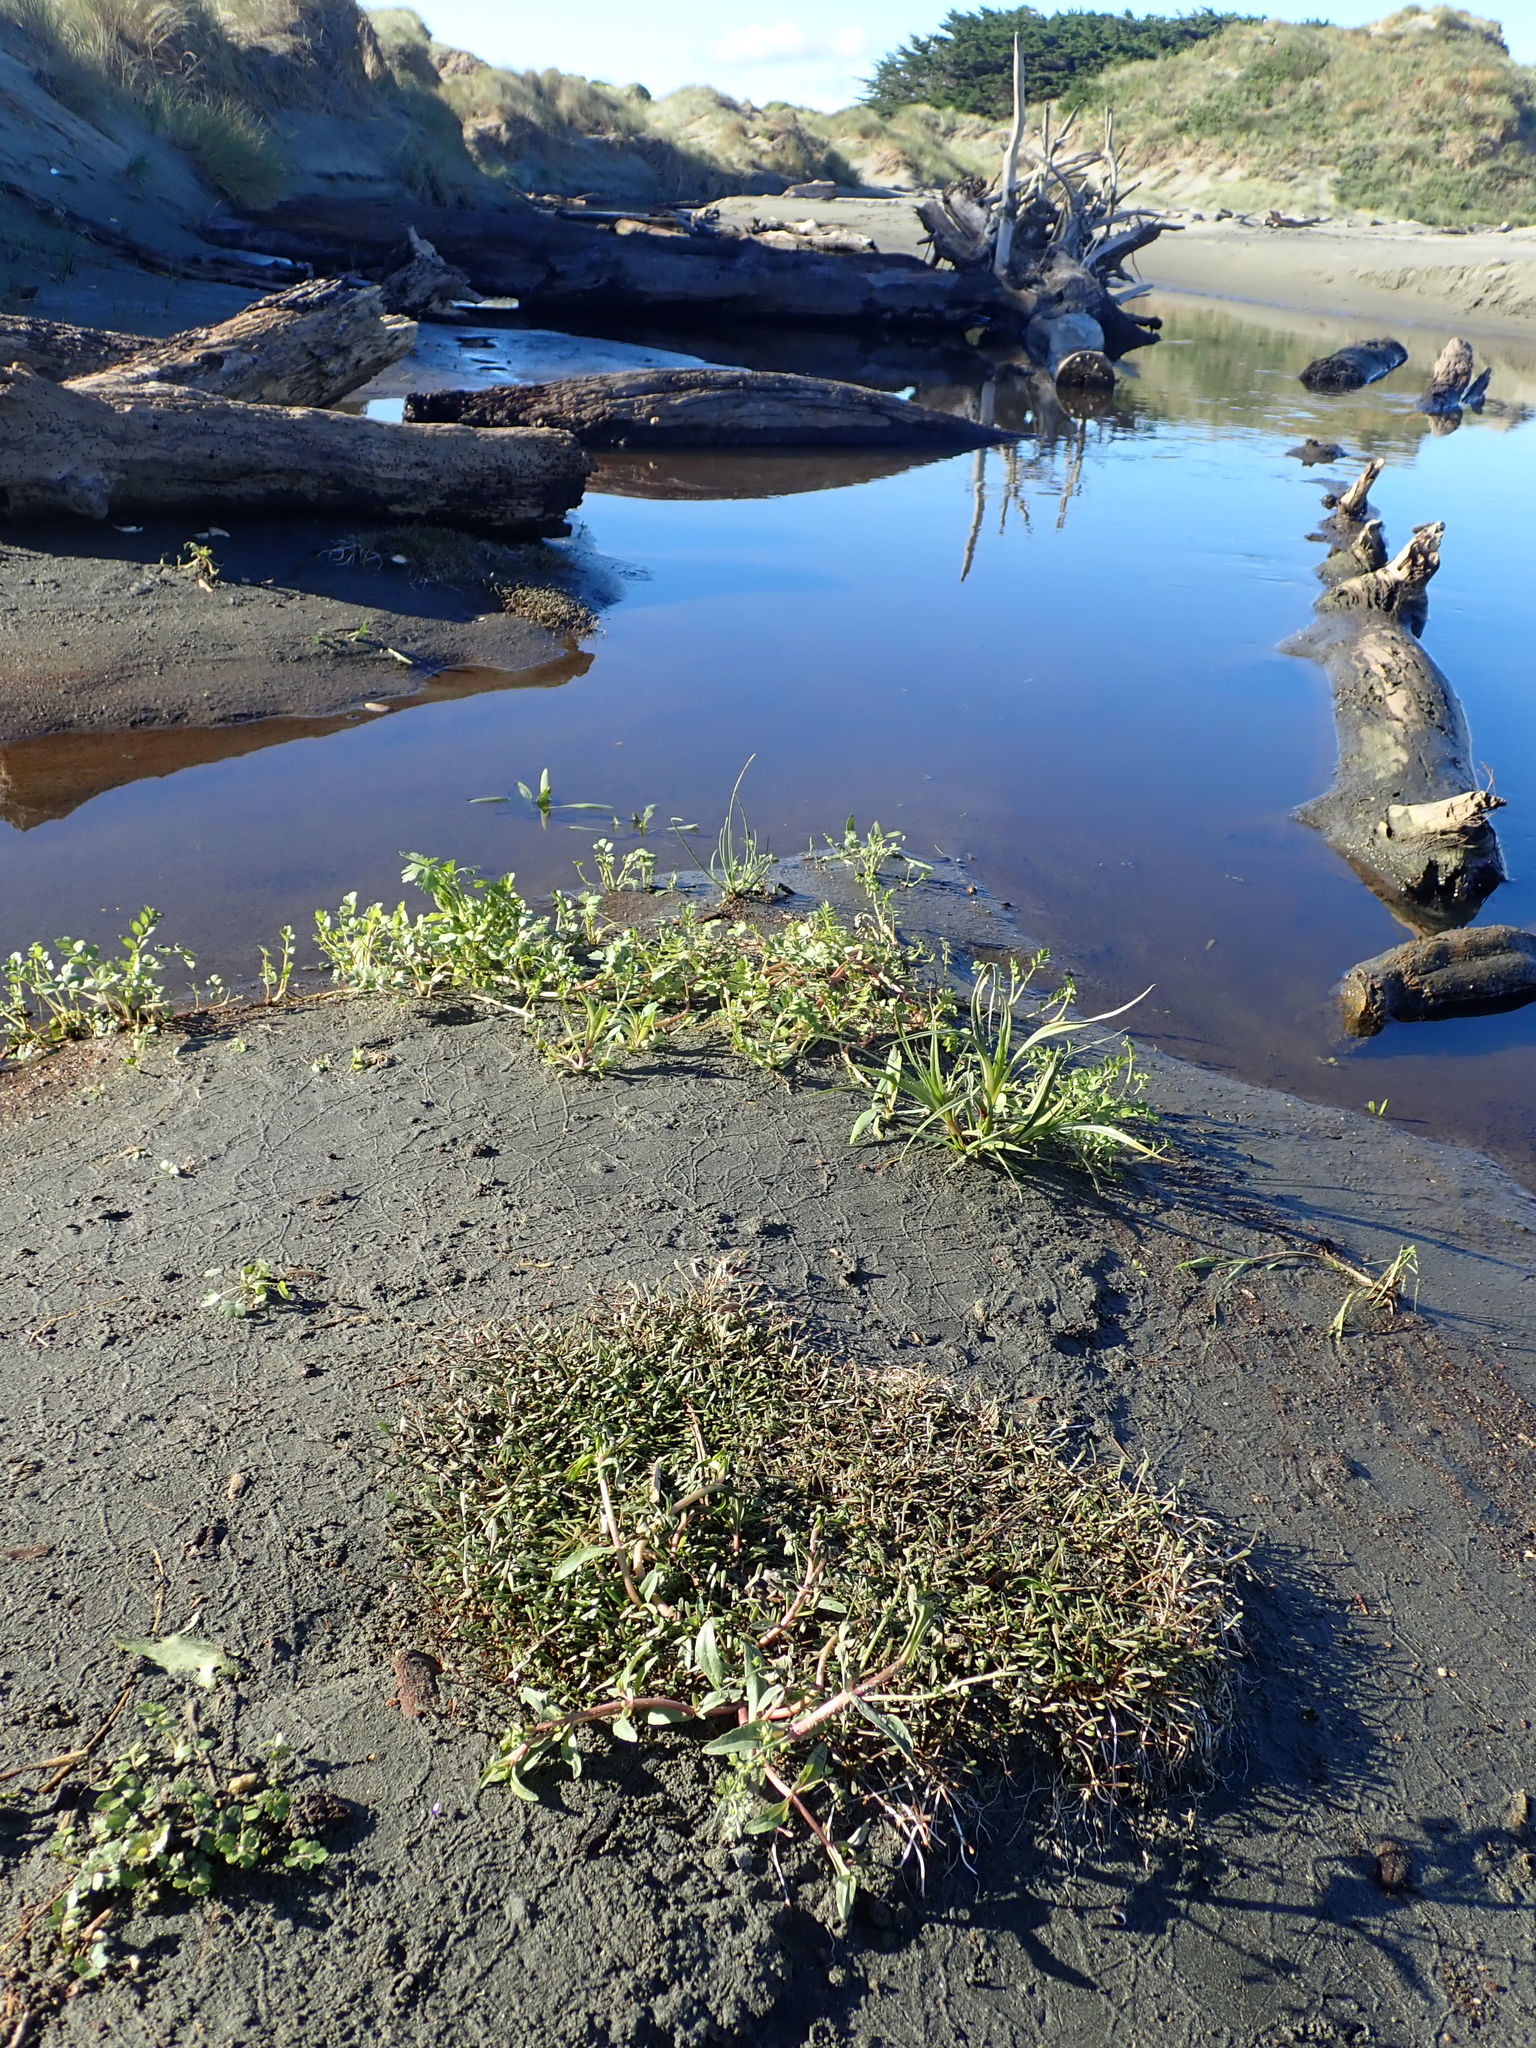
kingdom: Plantae
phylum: Tracheophyta
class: Magnoliopsida
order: Lamiales
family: Scrophulariaceae
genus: Limosella
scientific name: Limosella australis
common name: Welsh mudwort
